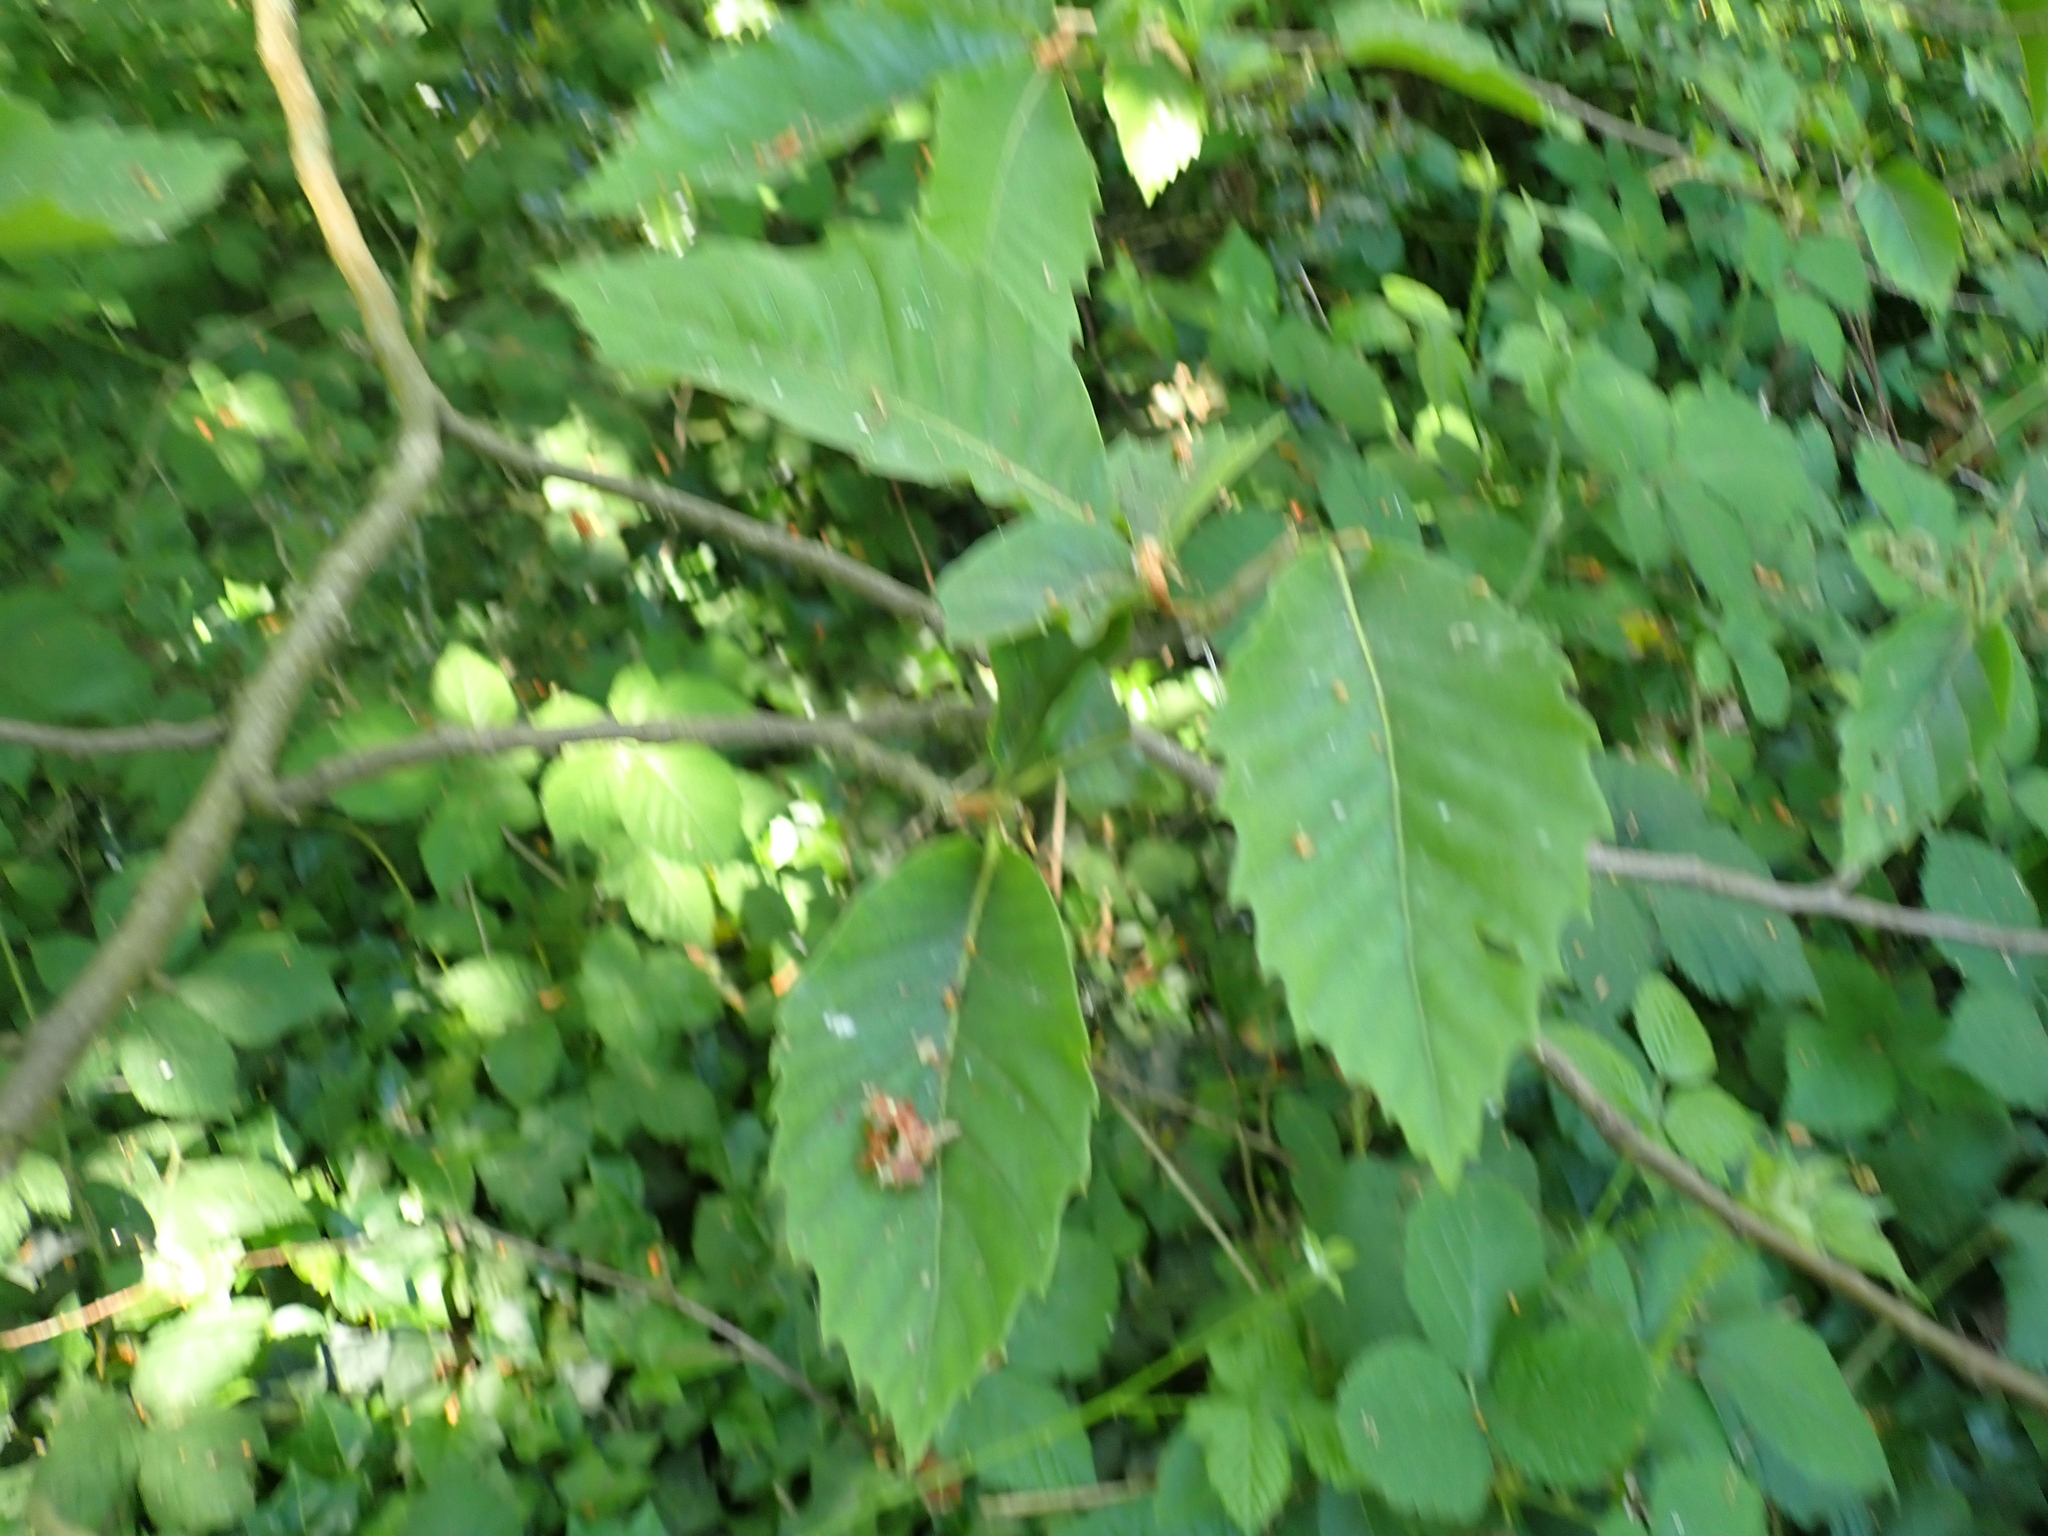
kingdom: Plantae
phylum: Tracheophyta
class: Magnoliopsida
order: Fagales
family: Fagaceae
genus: Castanea
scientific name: Castanea sativa
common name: Sweet chestnut
